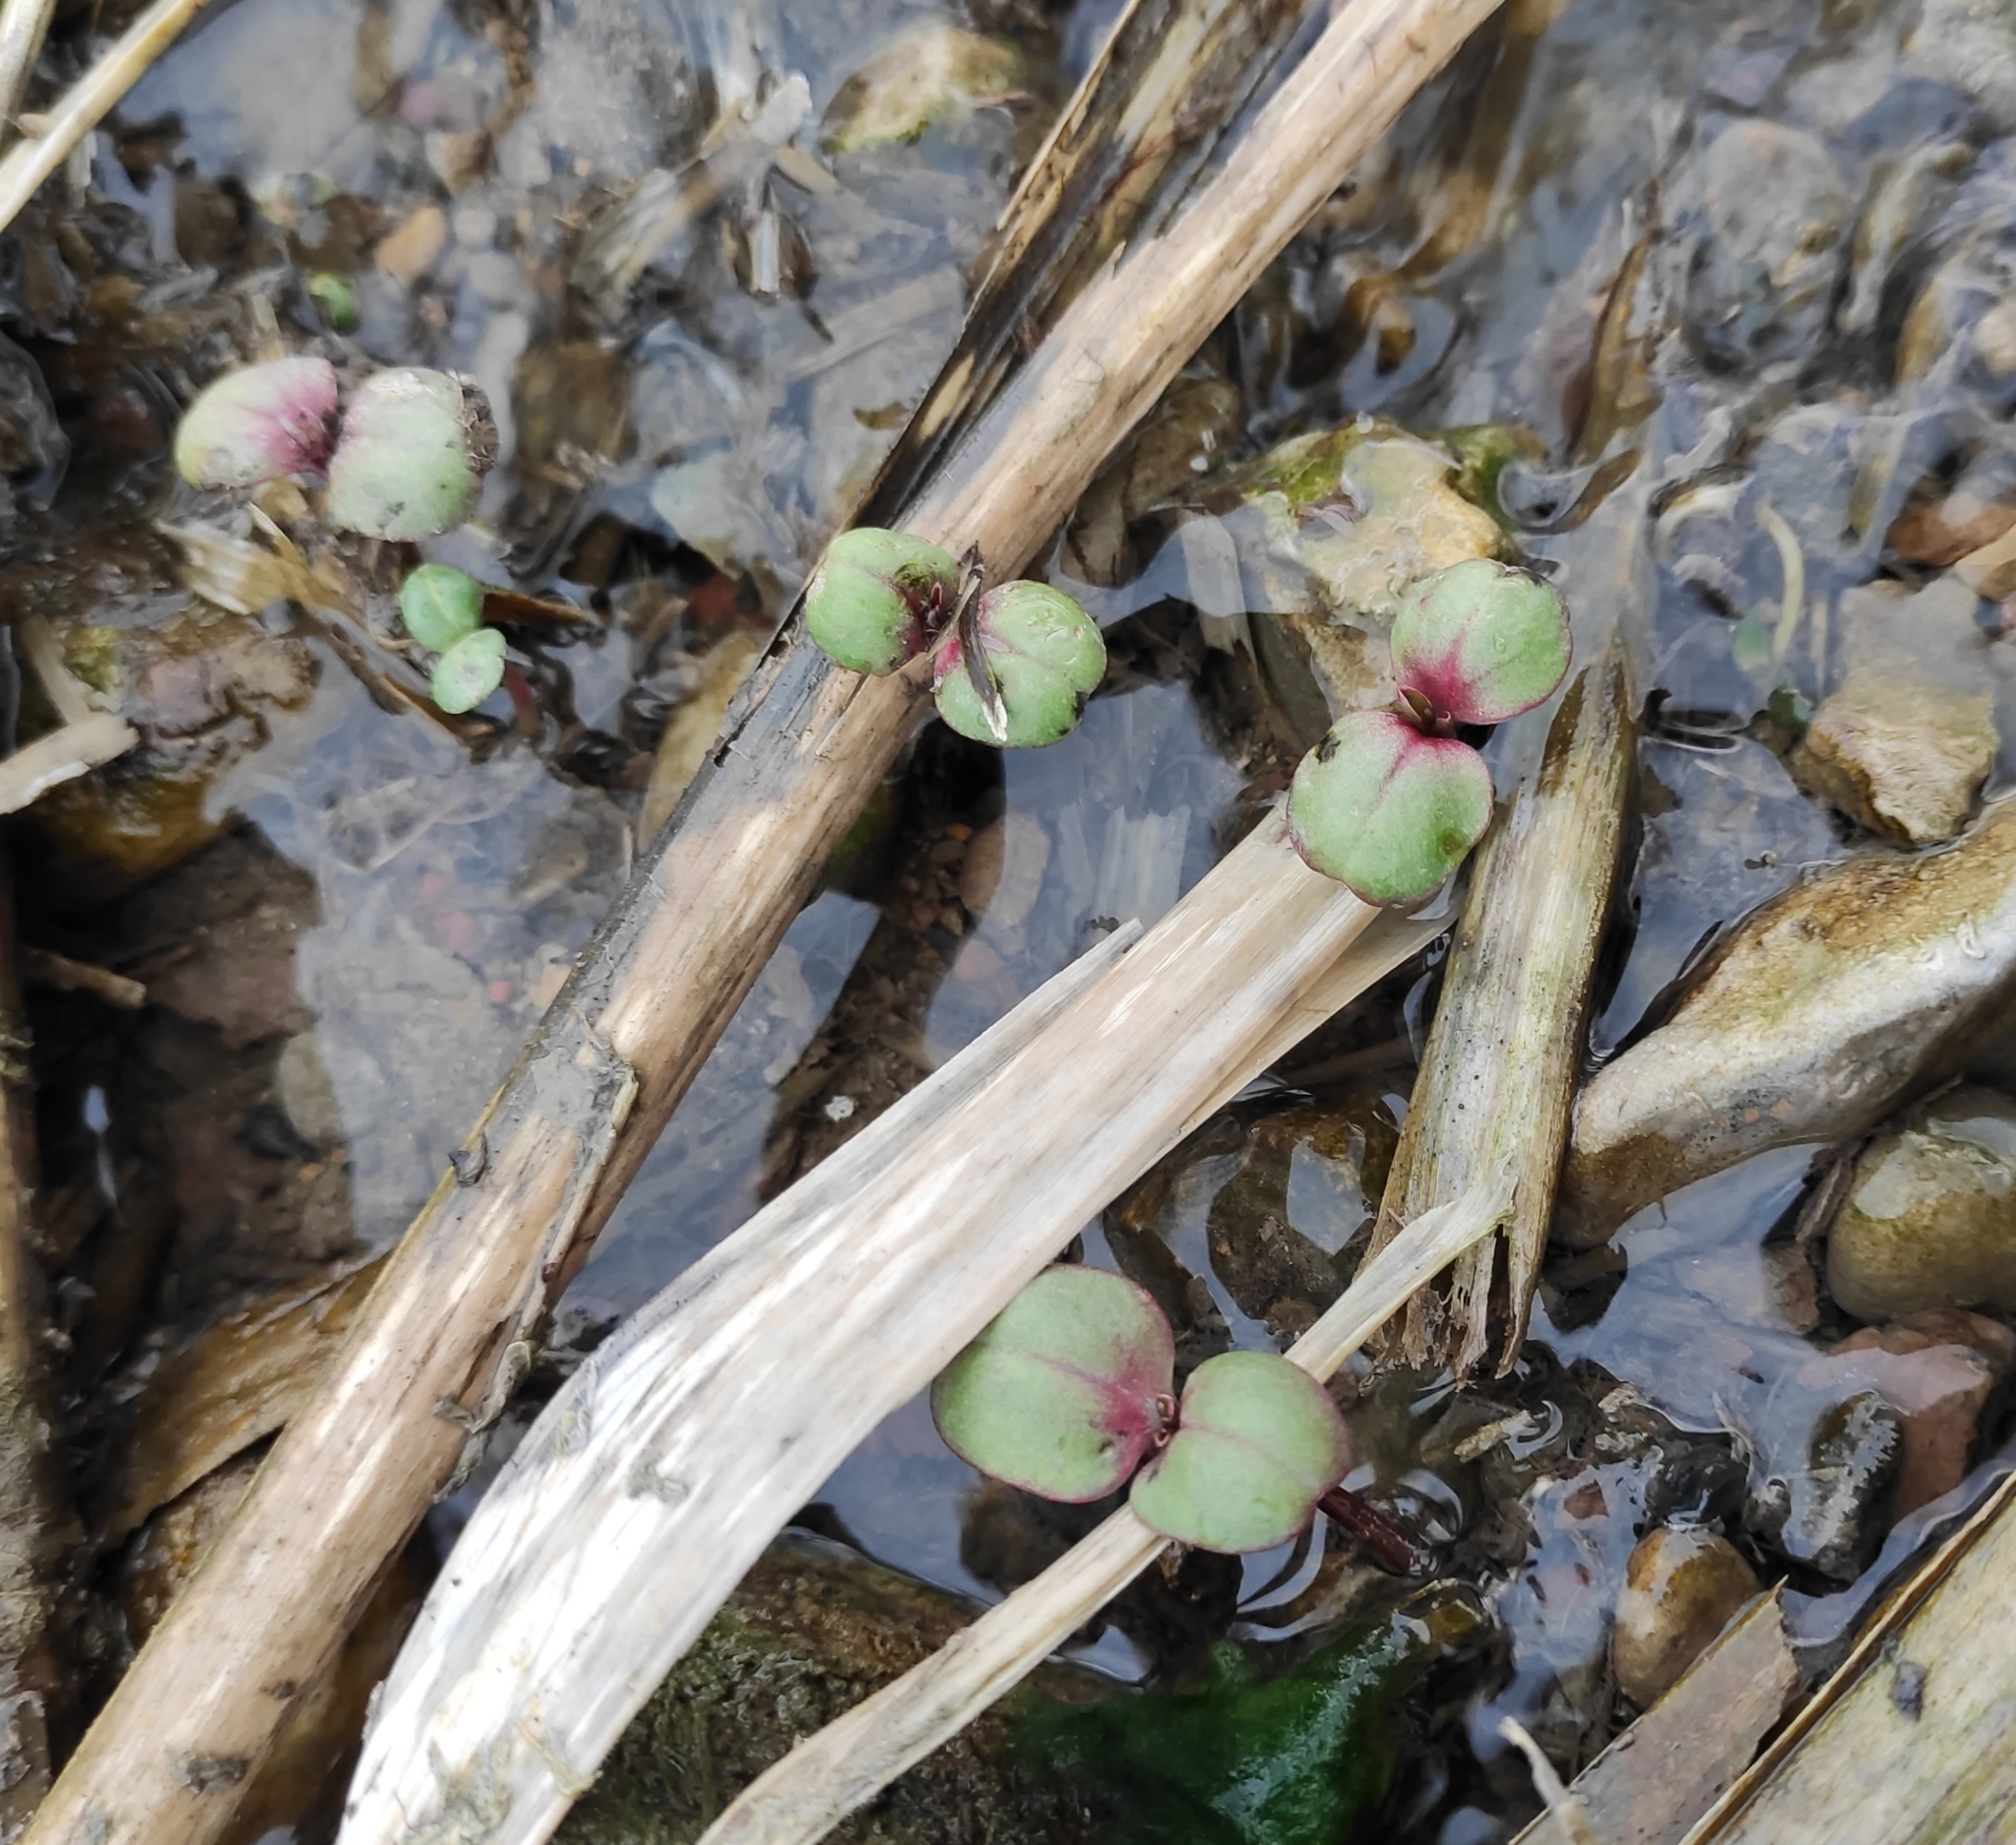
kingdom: Plantae
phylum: Tracheophyta
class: Magnoliopsida
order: Ericales
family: Balsaminaceae
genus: Impatiens
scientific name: Impatiens glandulifera
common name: Himalayan balsam
